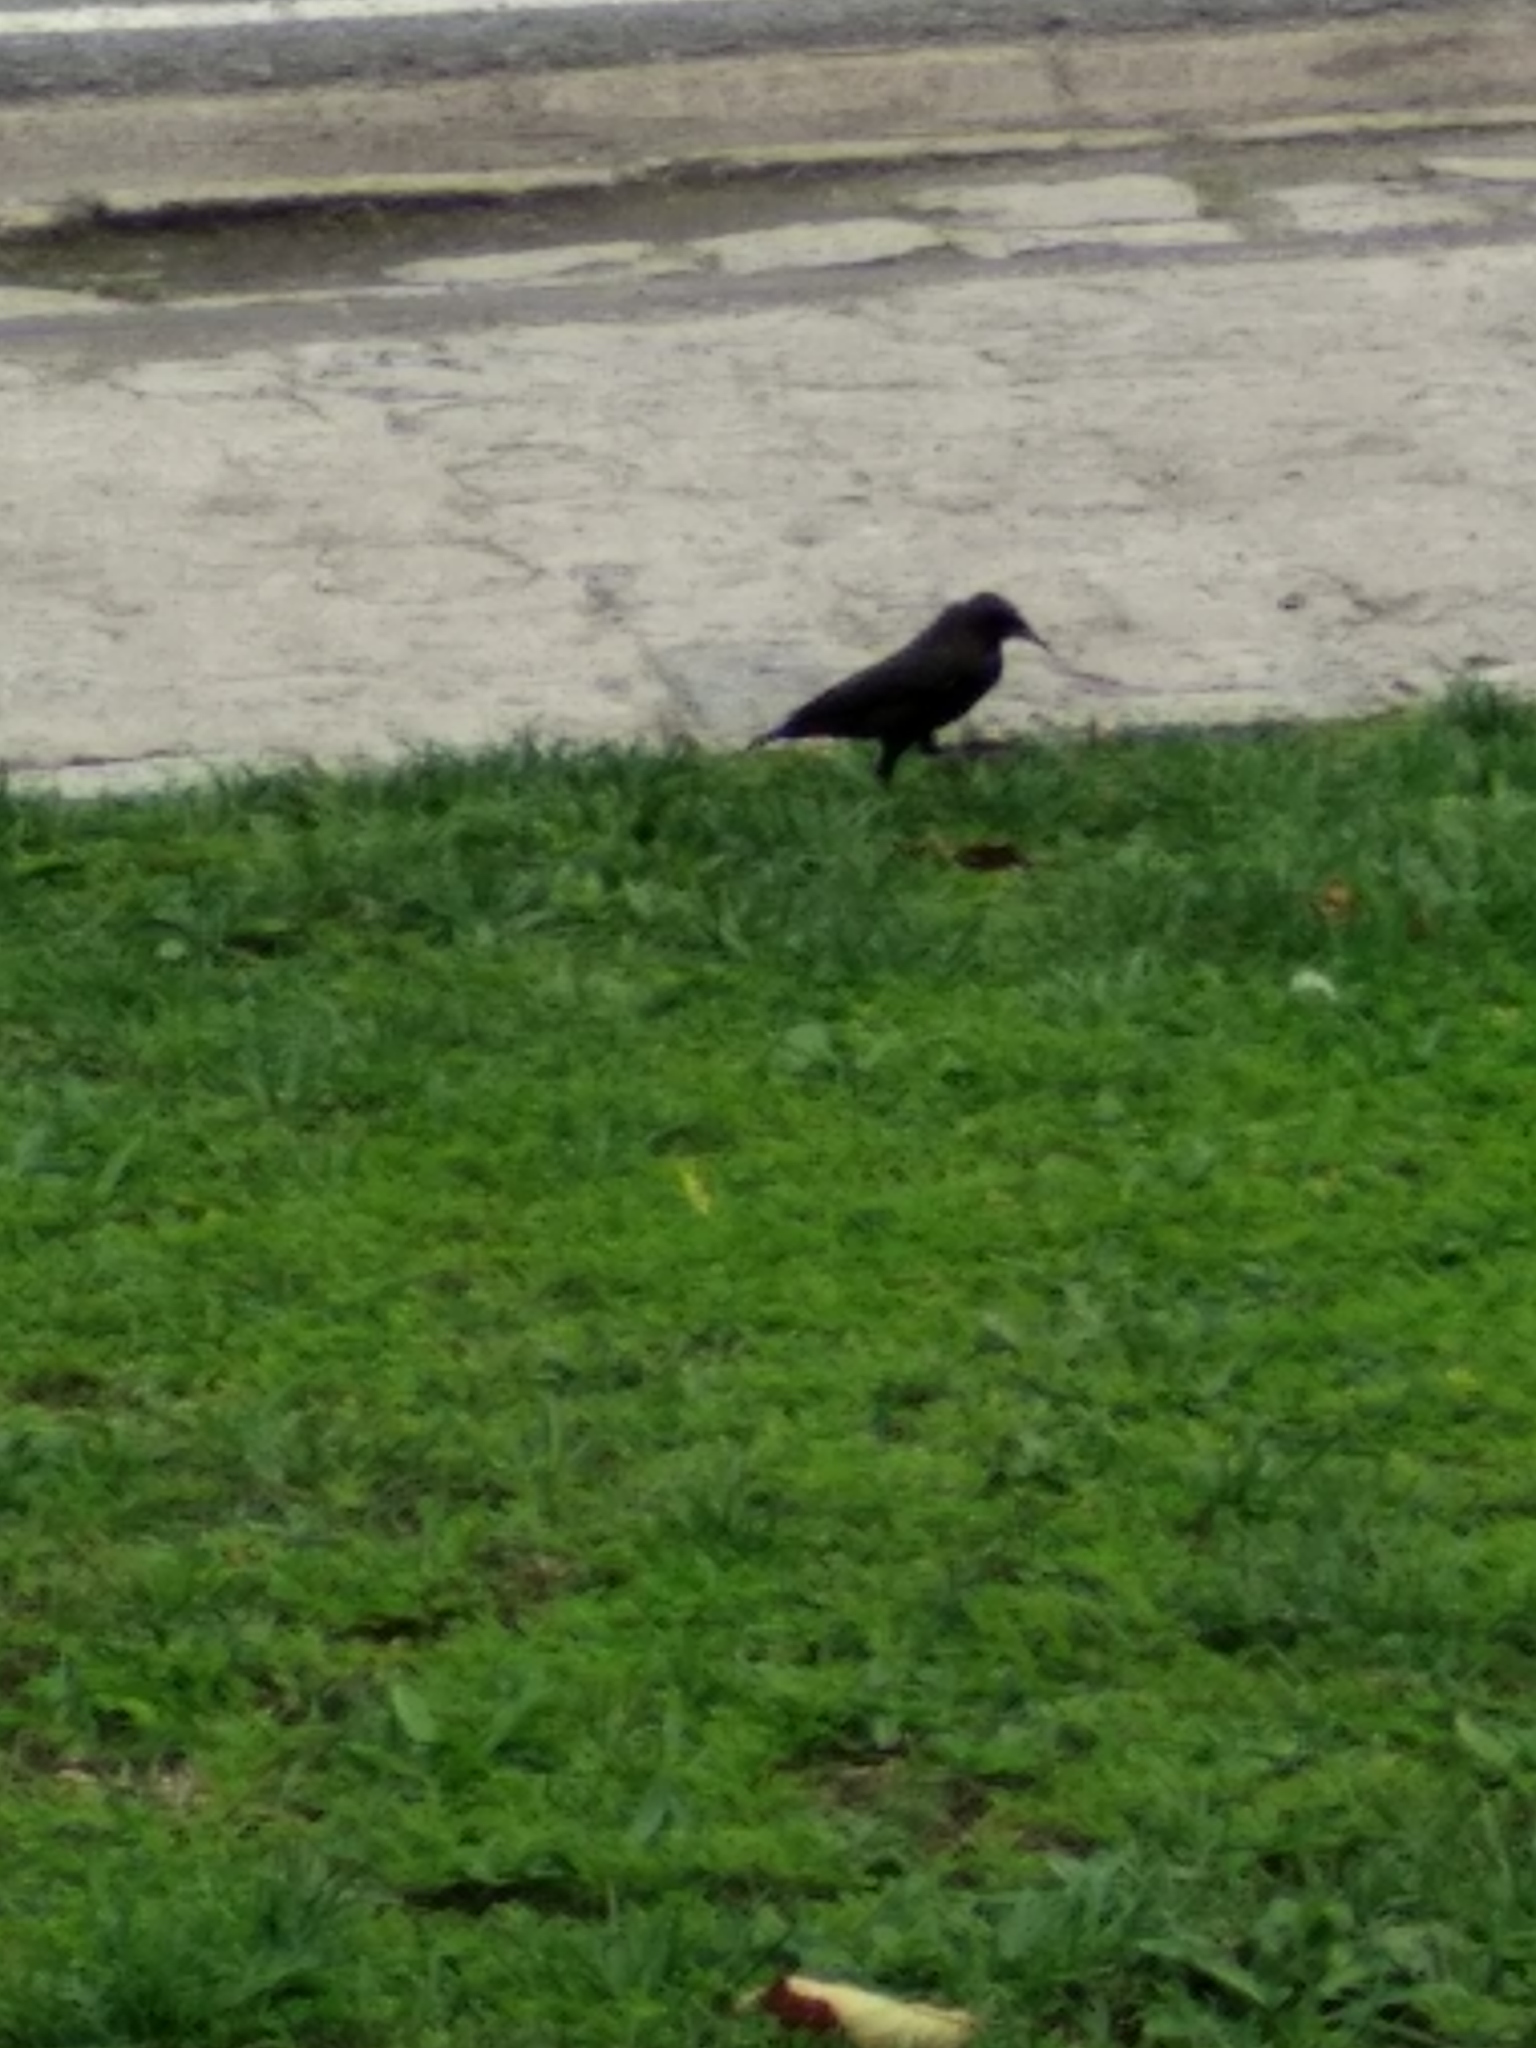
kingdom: Animalia
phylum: Chordata
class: Aves
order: Passeriformes
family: Sturnidae
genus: Sturnus
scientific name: Sturnus unicolor
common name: Spotless starling
